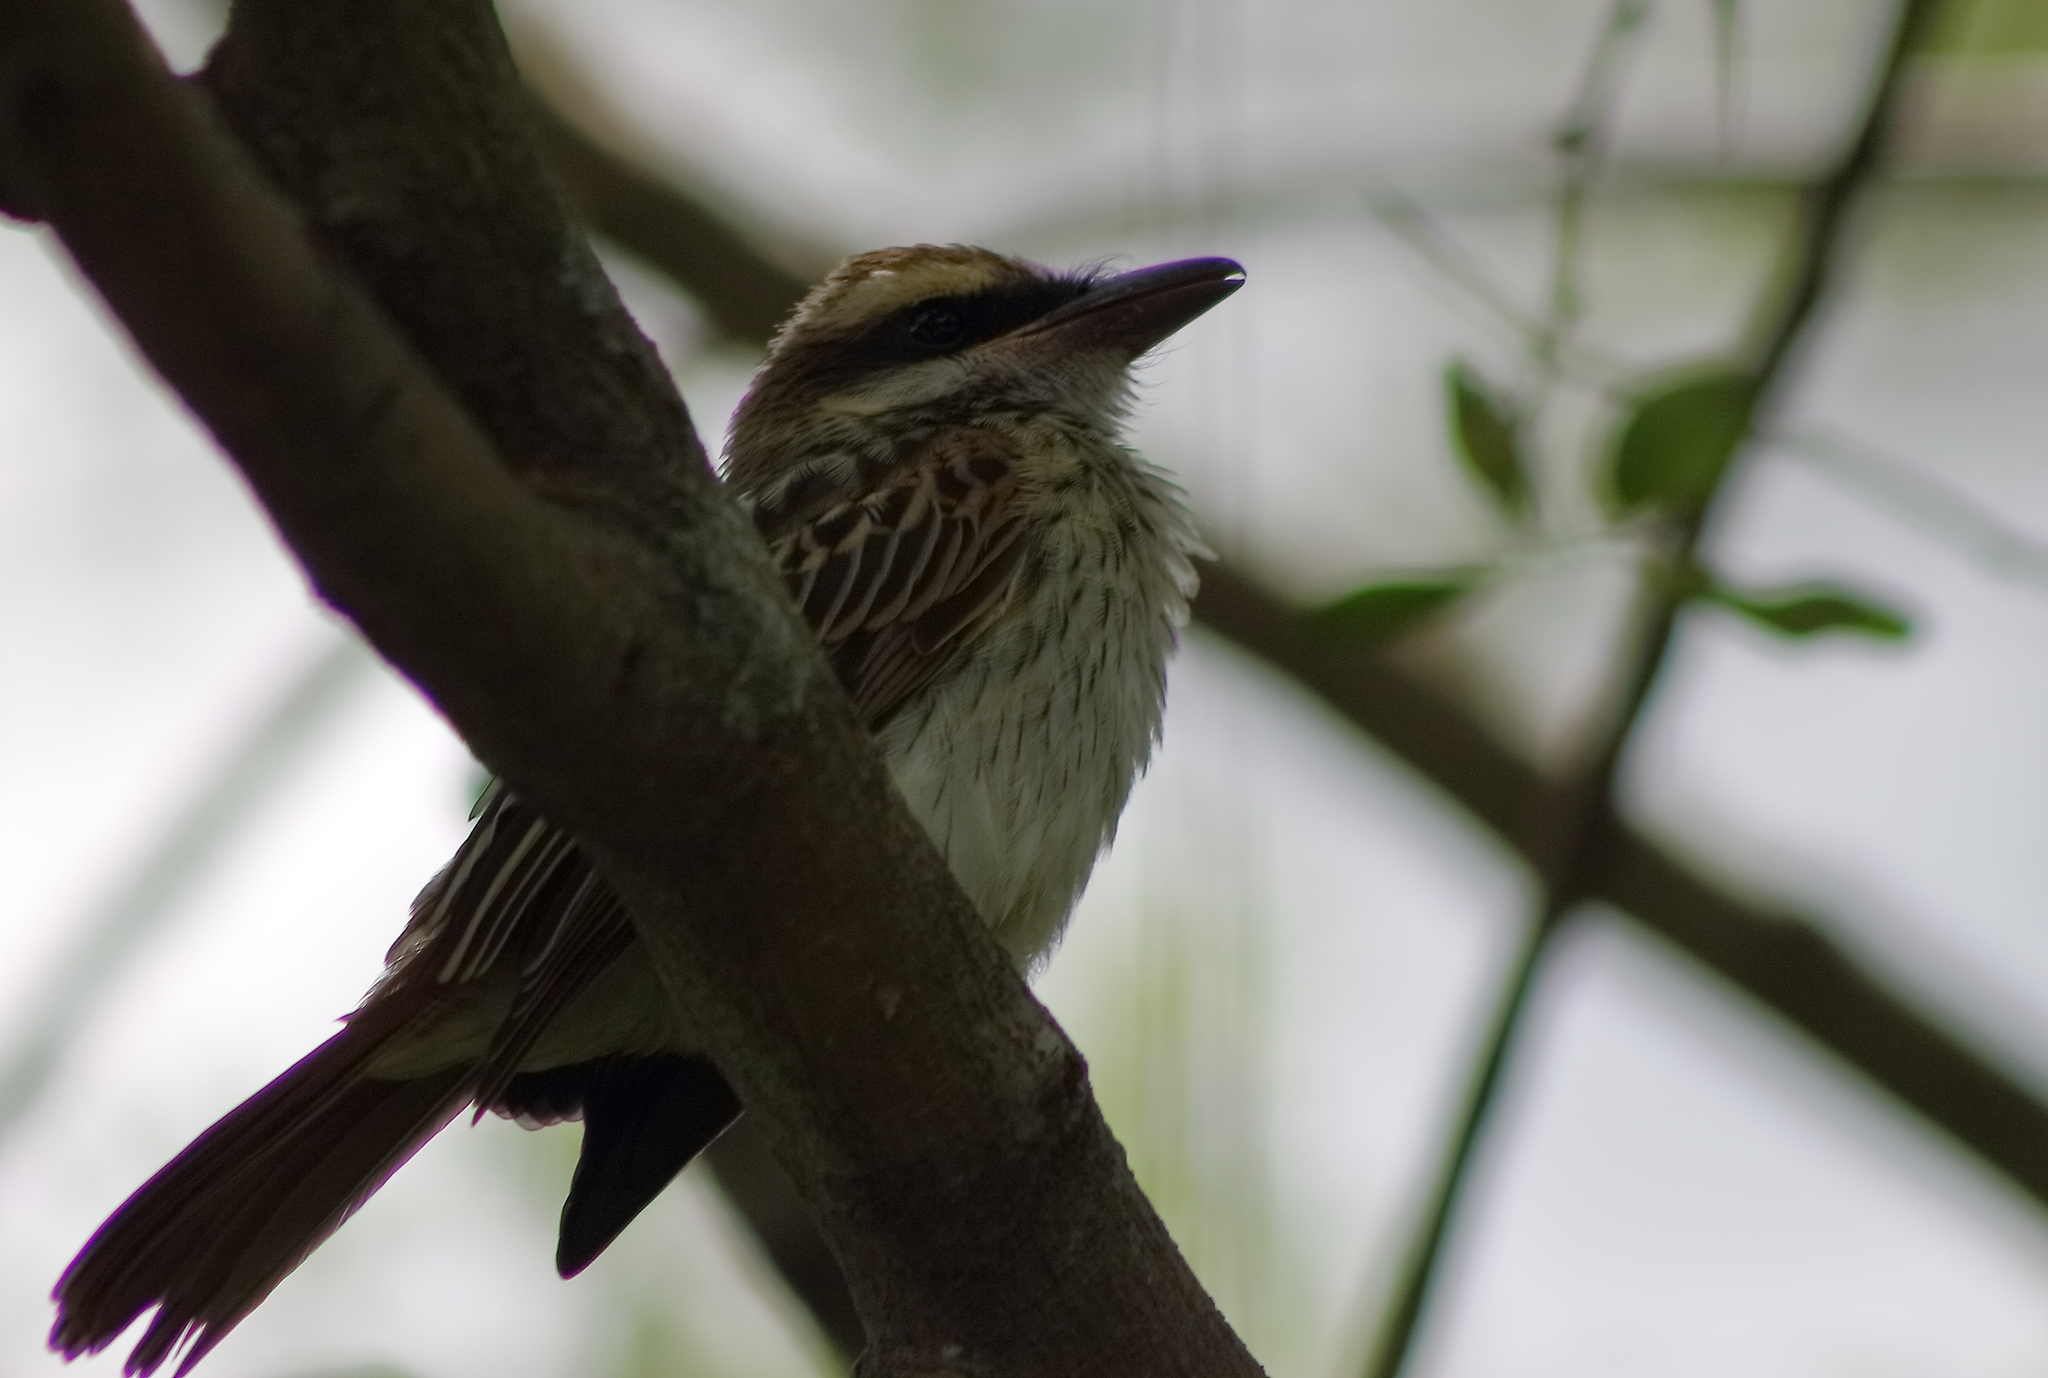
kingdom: Animalia
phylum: Chordata
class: Aves
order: Passeriformes
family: Tyrannidae
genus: Myiodynastes
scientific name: Myiodynastes maculatus
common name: Streaked flycatcher
